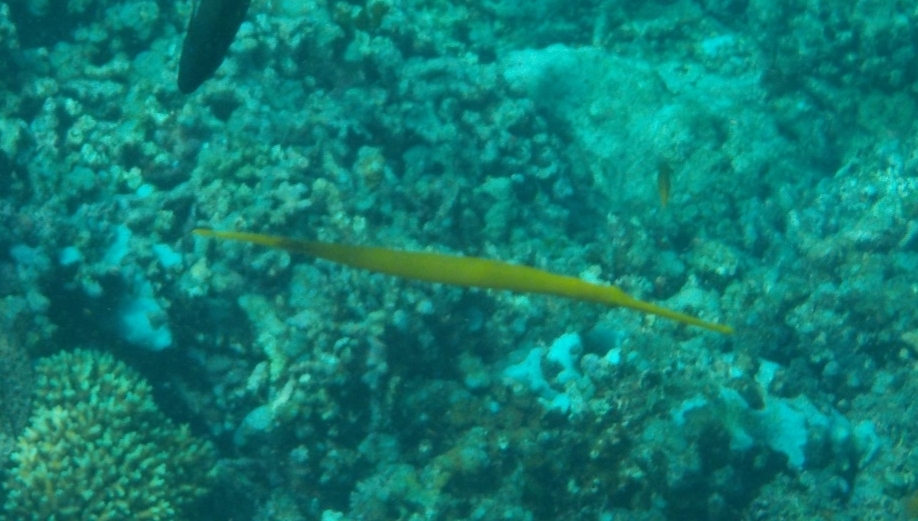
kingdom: Animalia
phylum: Chordata
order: Syngnathiformes
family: Aulostomidae
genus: Aulostomus
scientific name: Aulostomus chinensis
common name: Chinese trumpetfish
